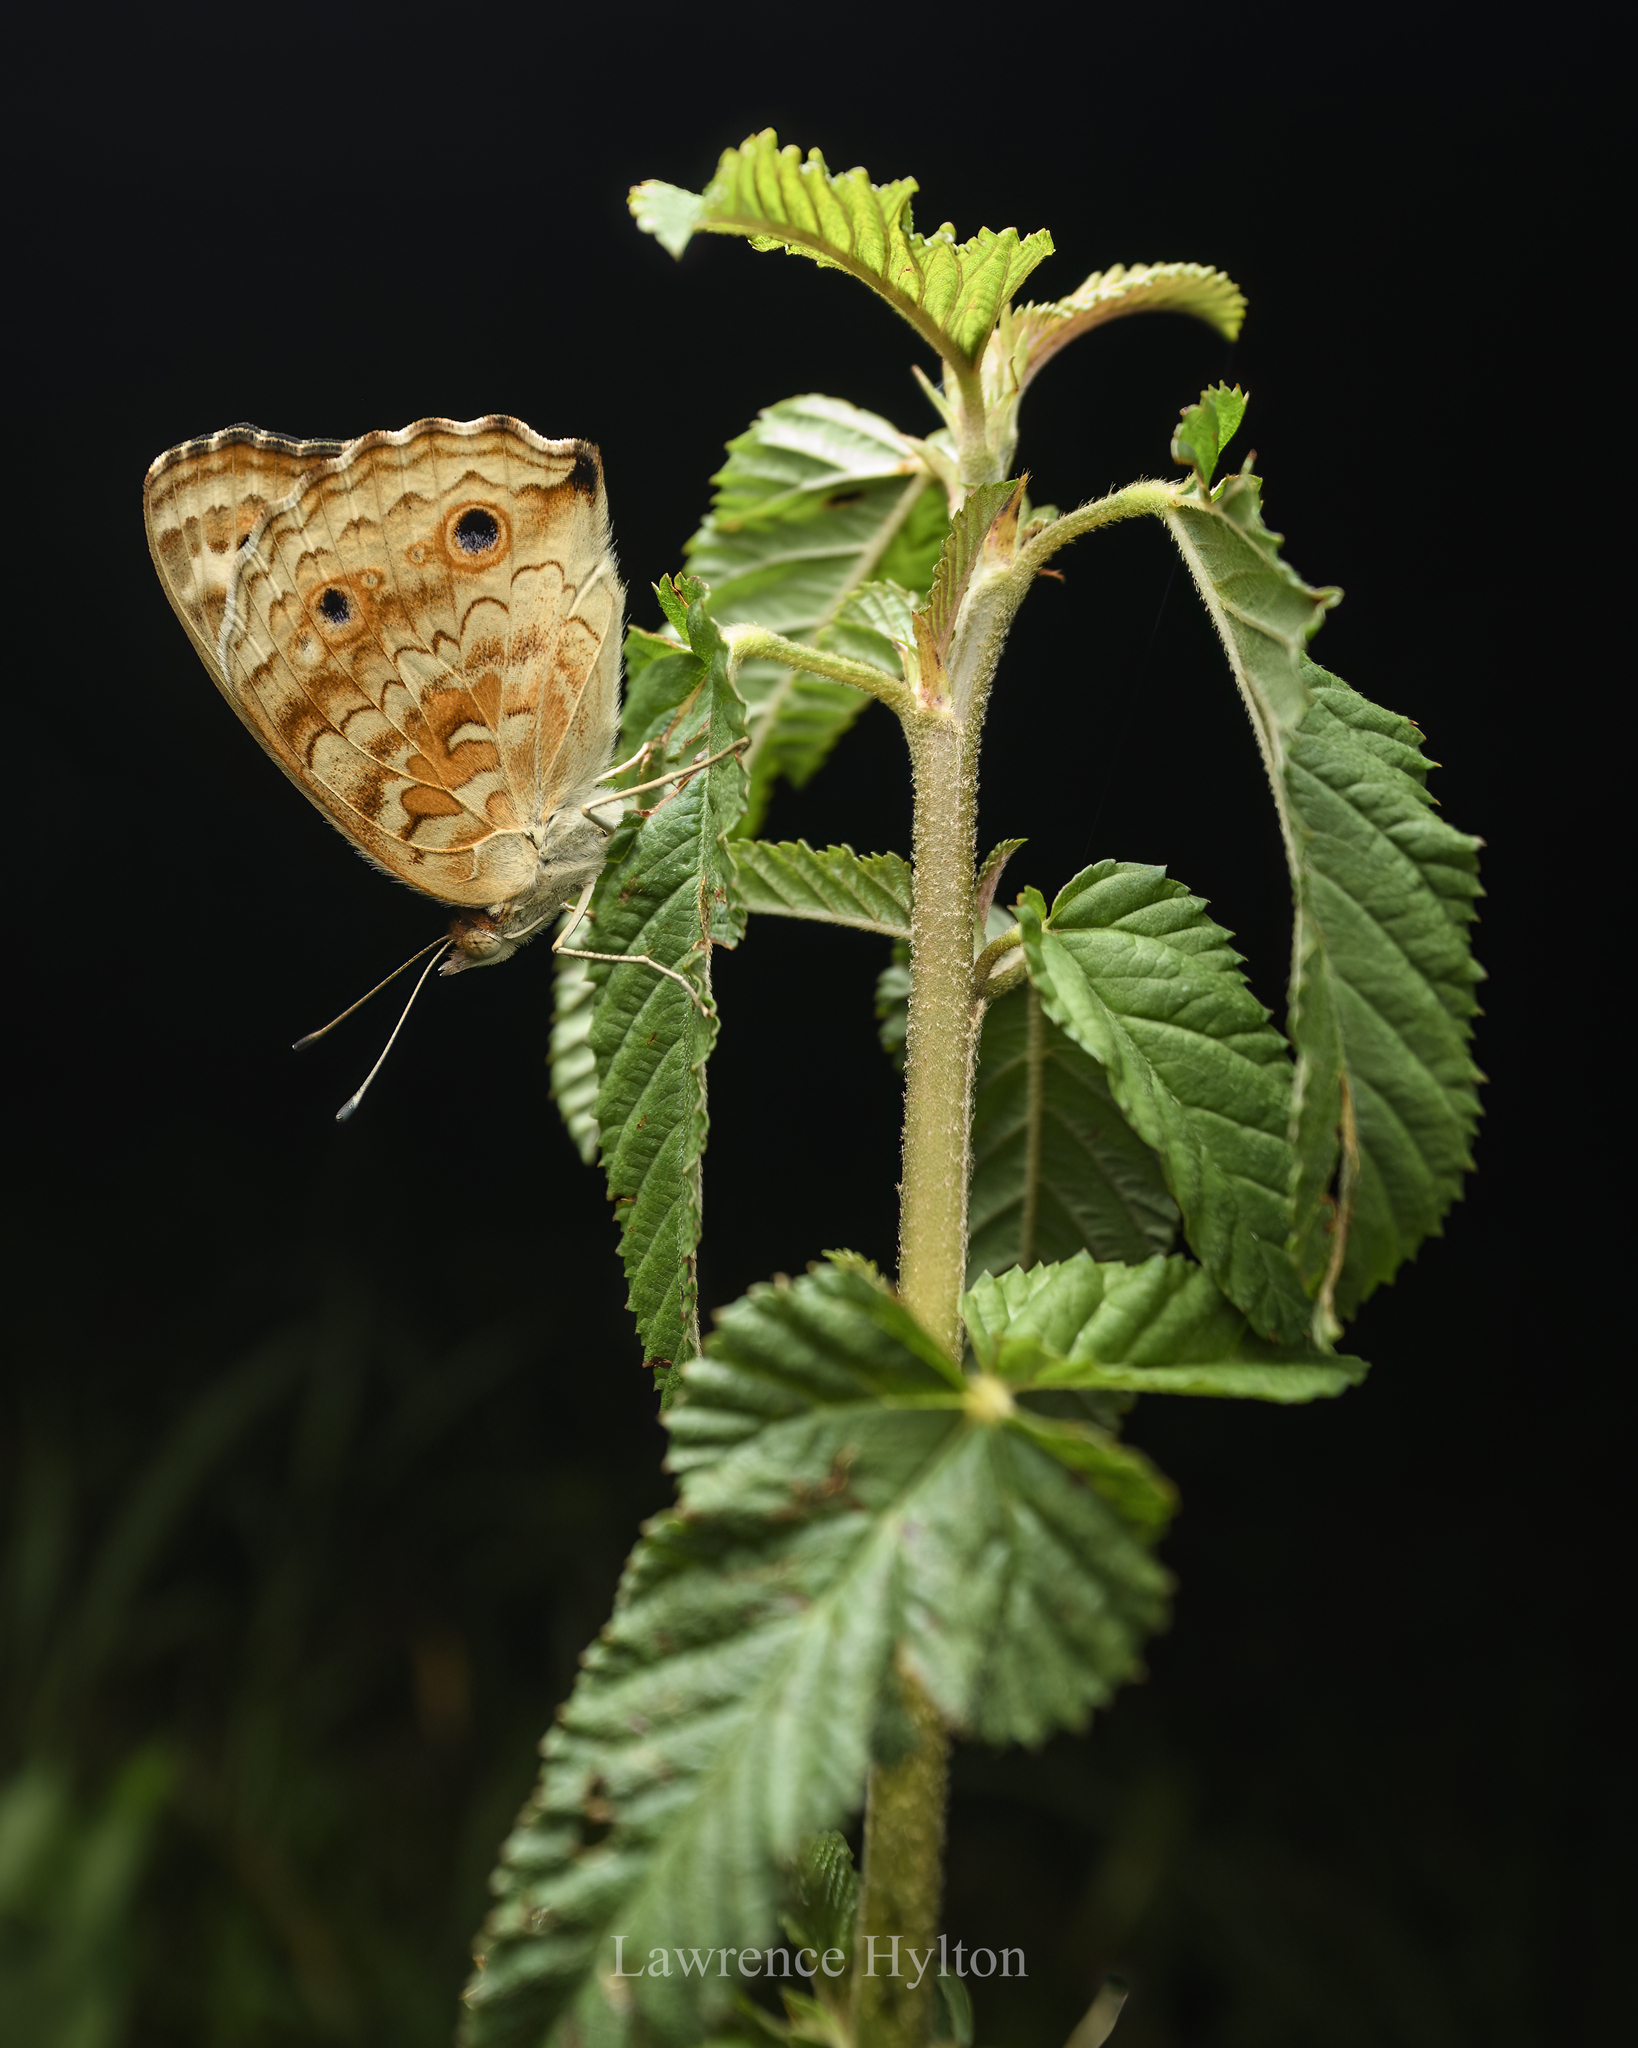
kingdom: Animalia
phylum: Arthropoda
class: Insecta
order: Lepidoptera
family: Nymphalidae
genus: Junonia
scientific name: Junonia orithya
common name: Blue pansy
